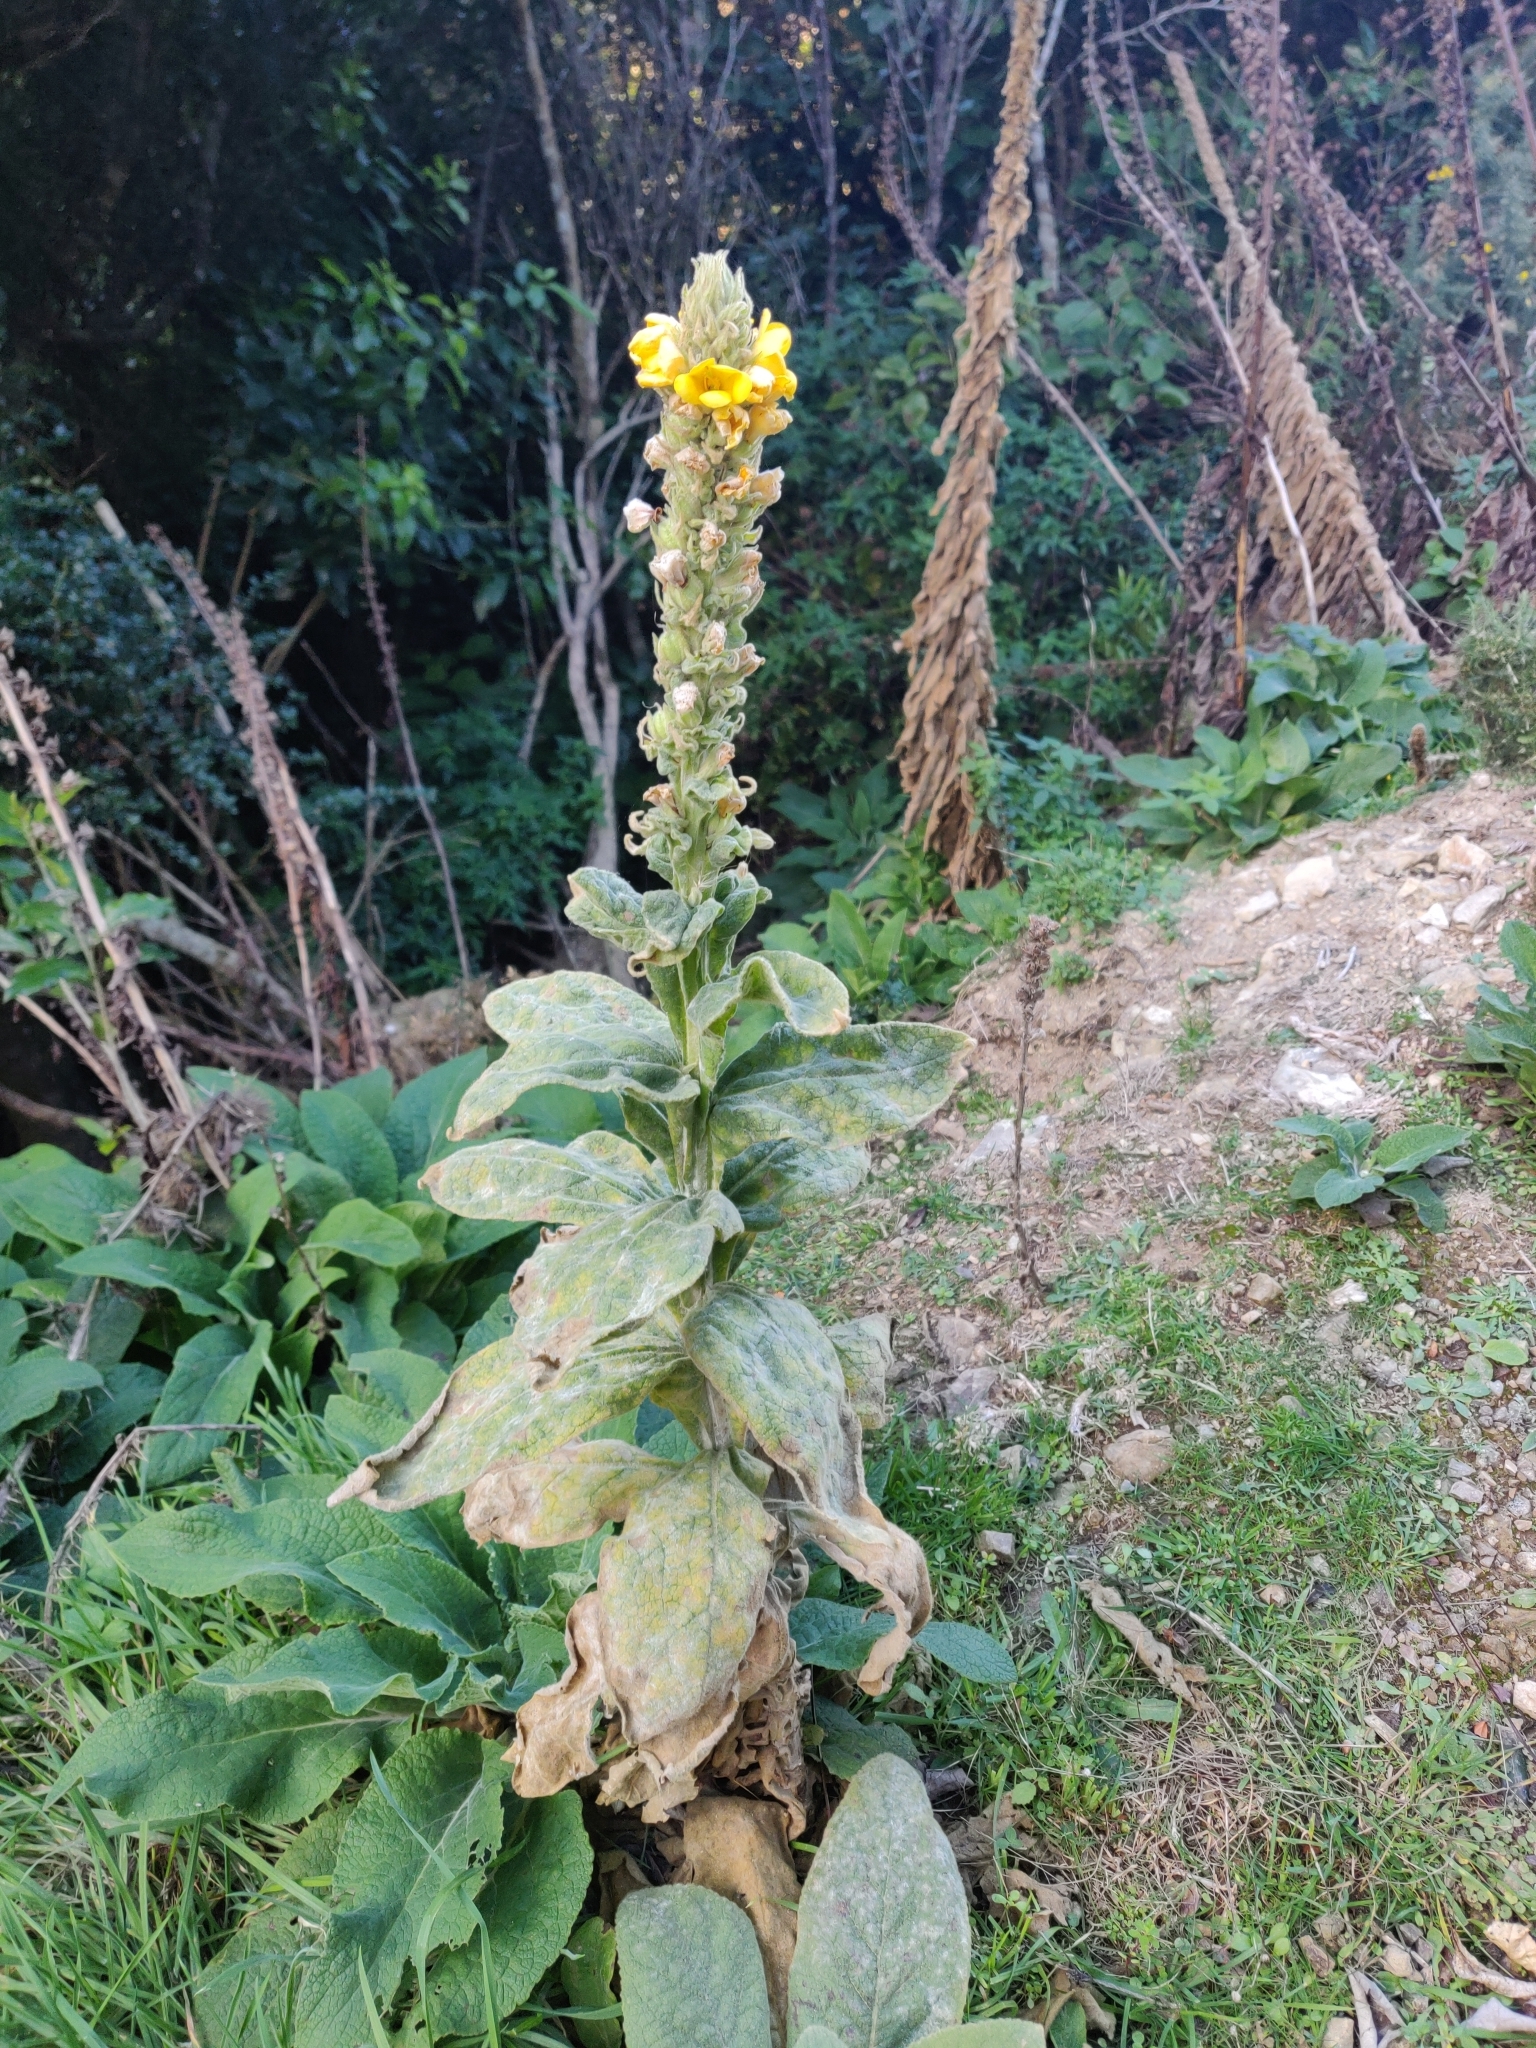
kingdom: Plantae
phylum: Tracheophyta
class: Magnoliopsida
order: Lamiales
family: Scrophulariaceae
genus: Verbascum
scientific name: Verbascum thapsus
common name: Common mullein
